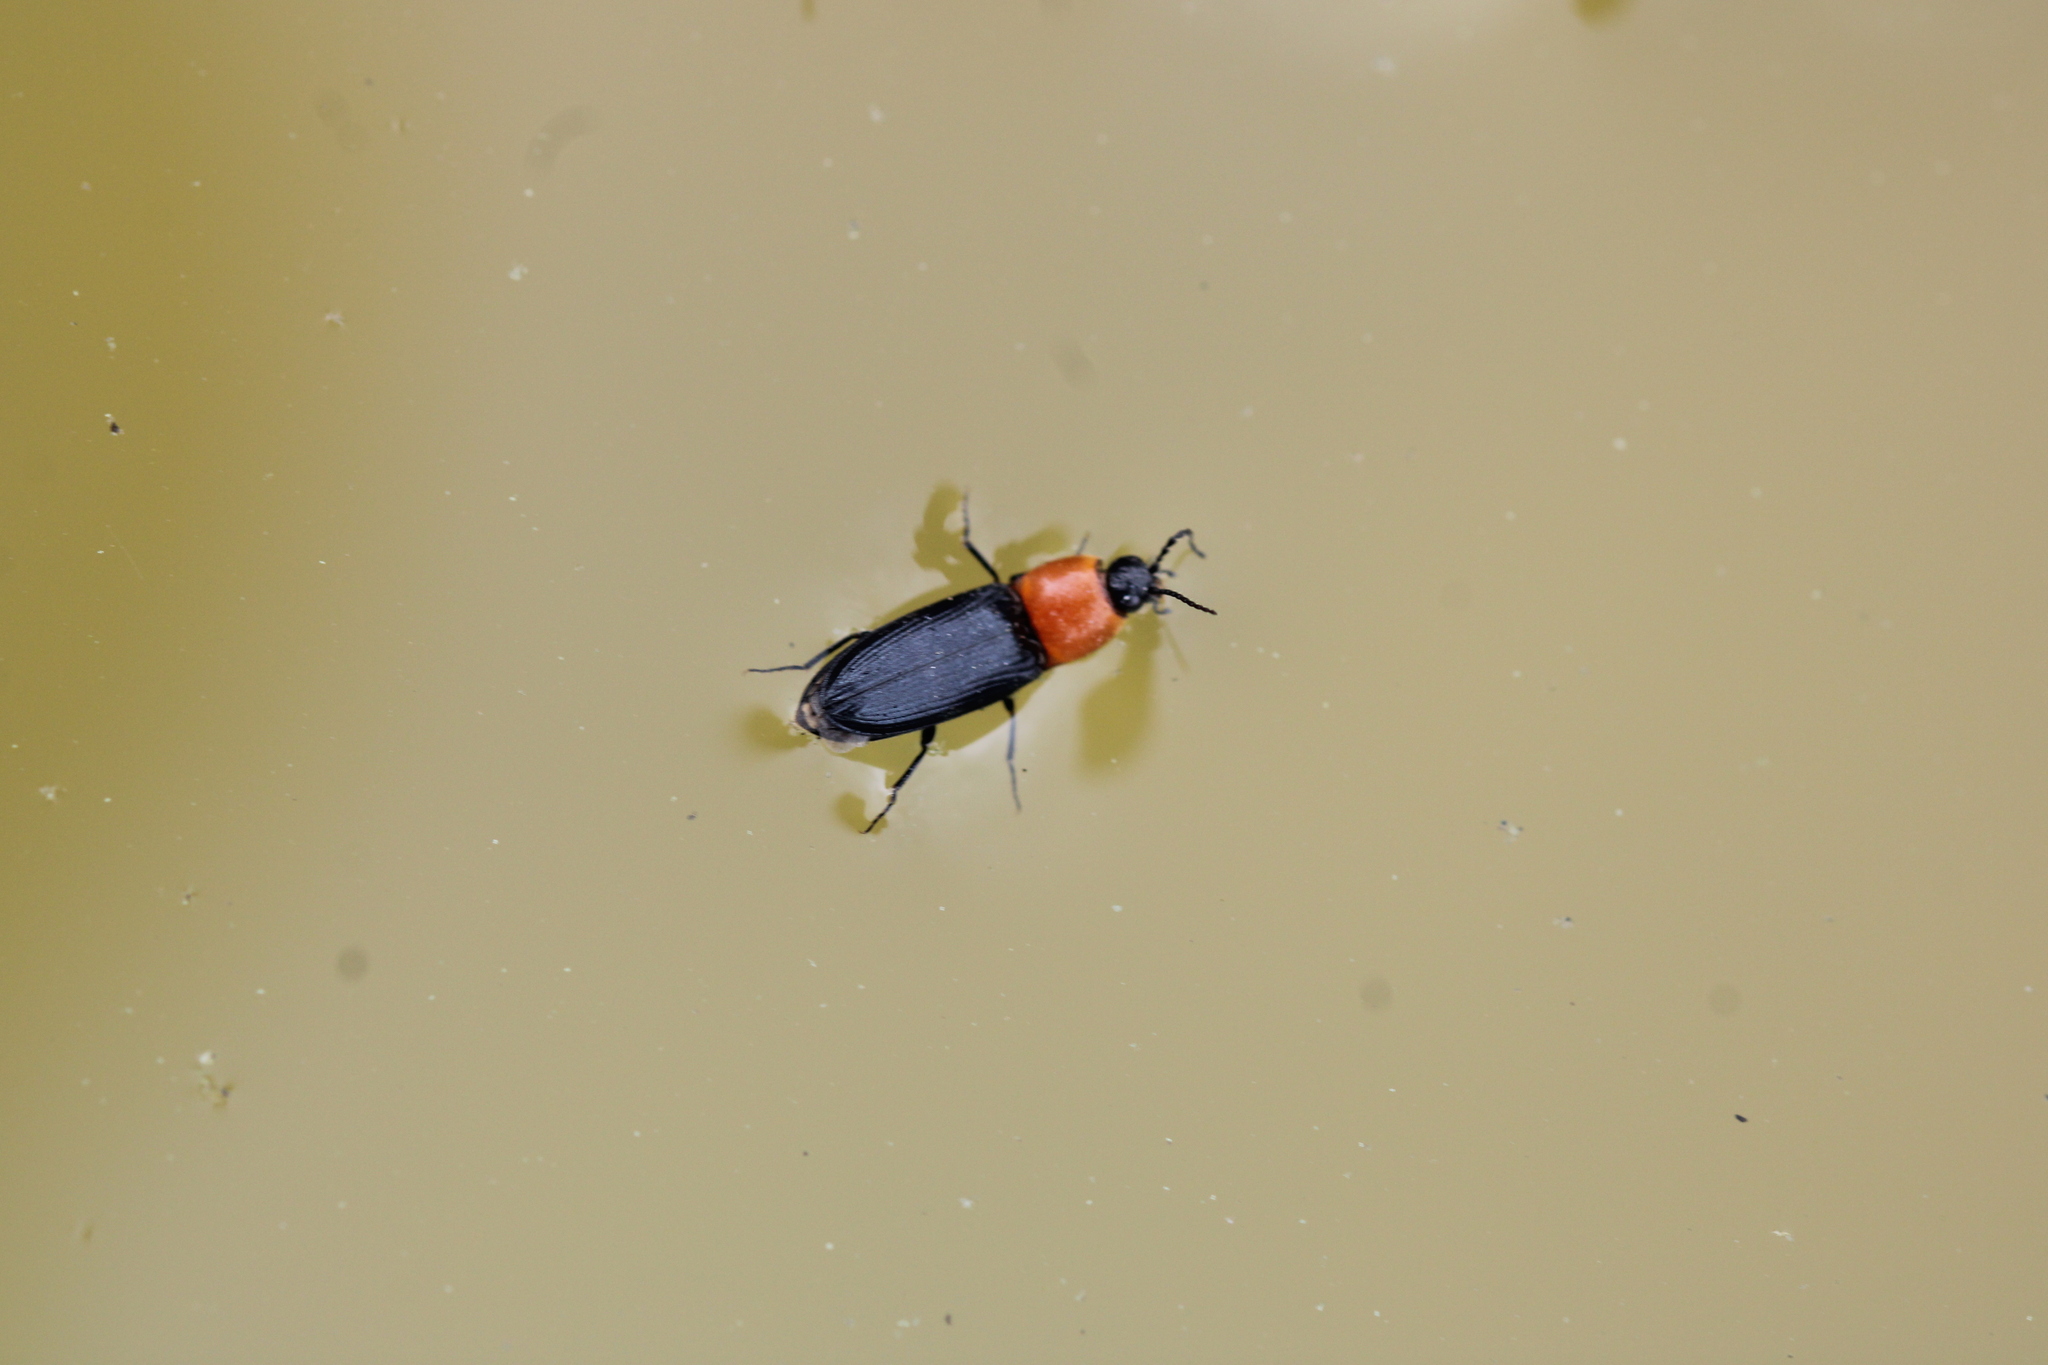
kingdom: Animalia
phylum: Arthropoda
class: Insecta
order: Coleoptera
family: Elateridae
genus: Cardiophorus
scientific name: Cardiophorus gramineus
